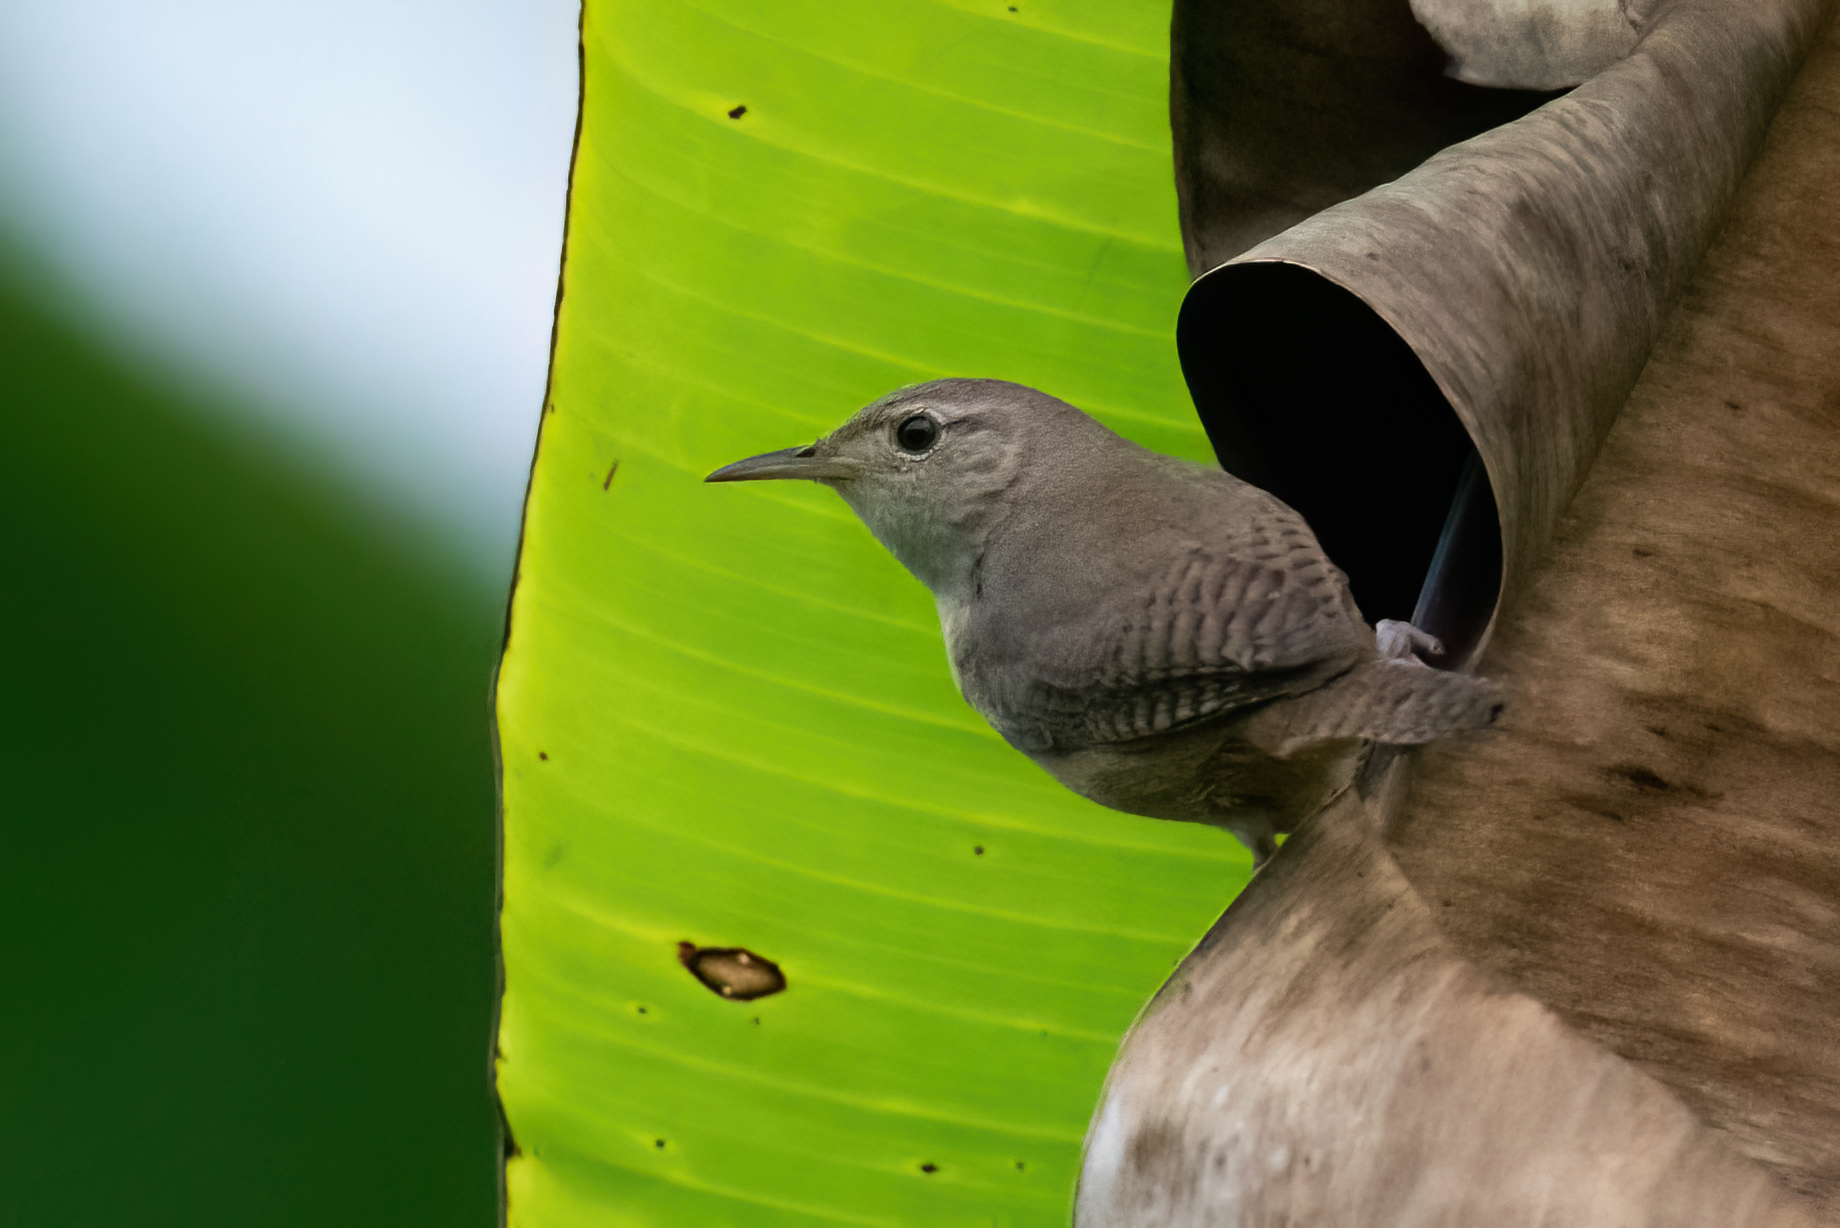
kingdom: Animalia
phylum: Chordata
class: Aves
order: Passeriformes
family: Troglodytidae
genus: Troglodytes
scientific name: Troglodytes aedon
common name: House wren
